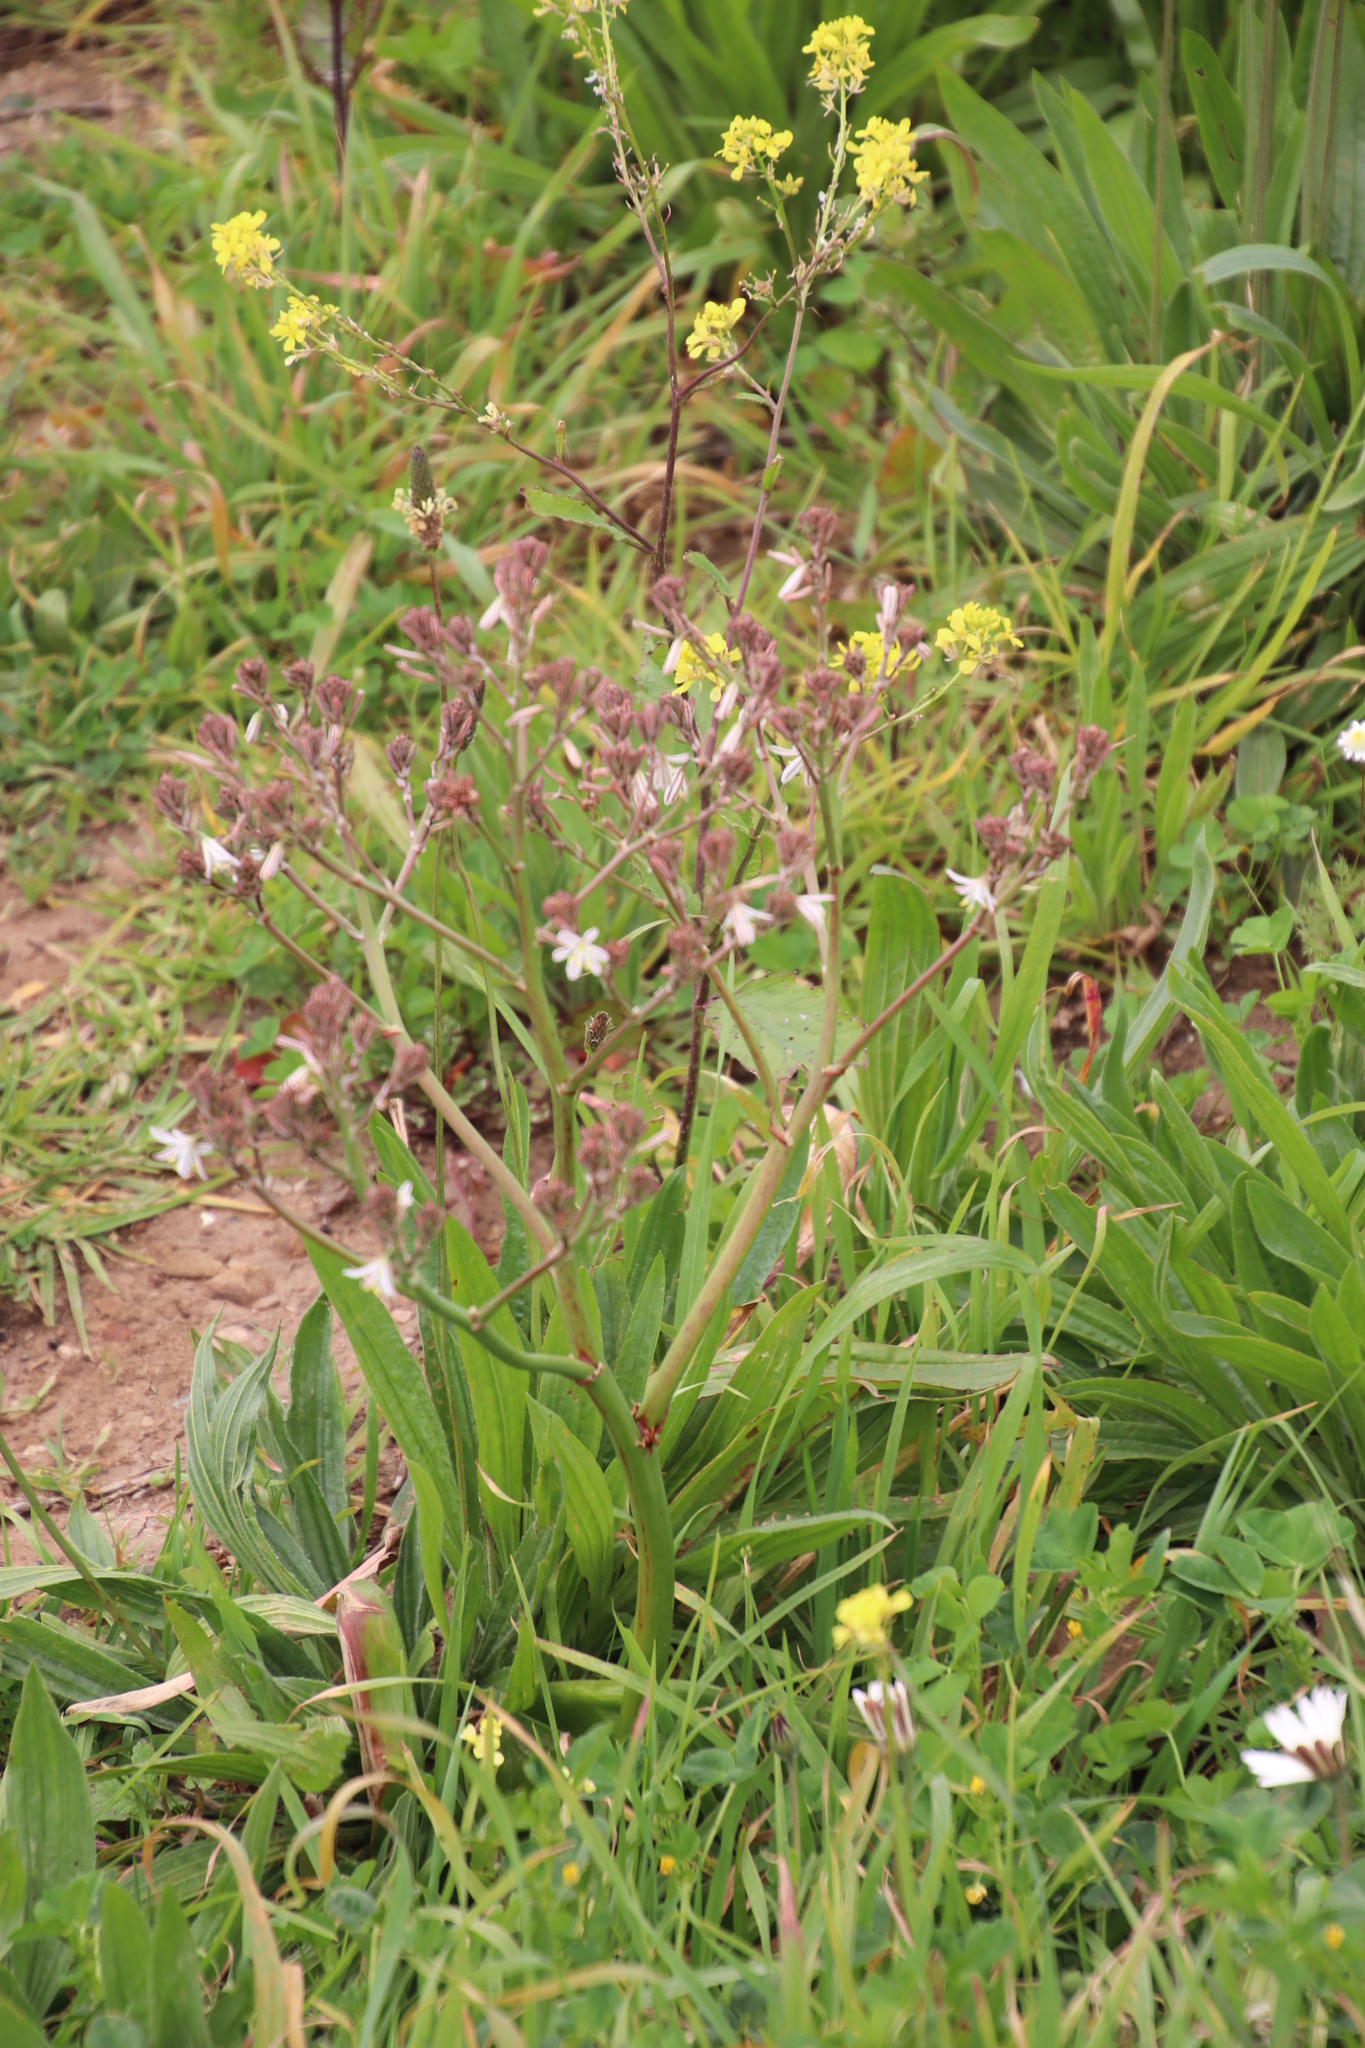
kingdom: Plantae
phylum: Tracheophyta
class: Liliopsida
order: Asparagales
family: Asphodelaceae
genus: Trachyandra
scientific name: Trachyandra muricata
